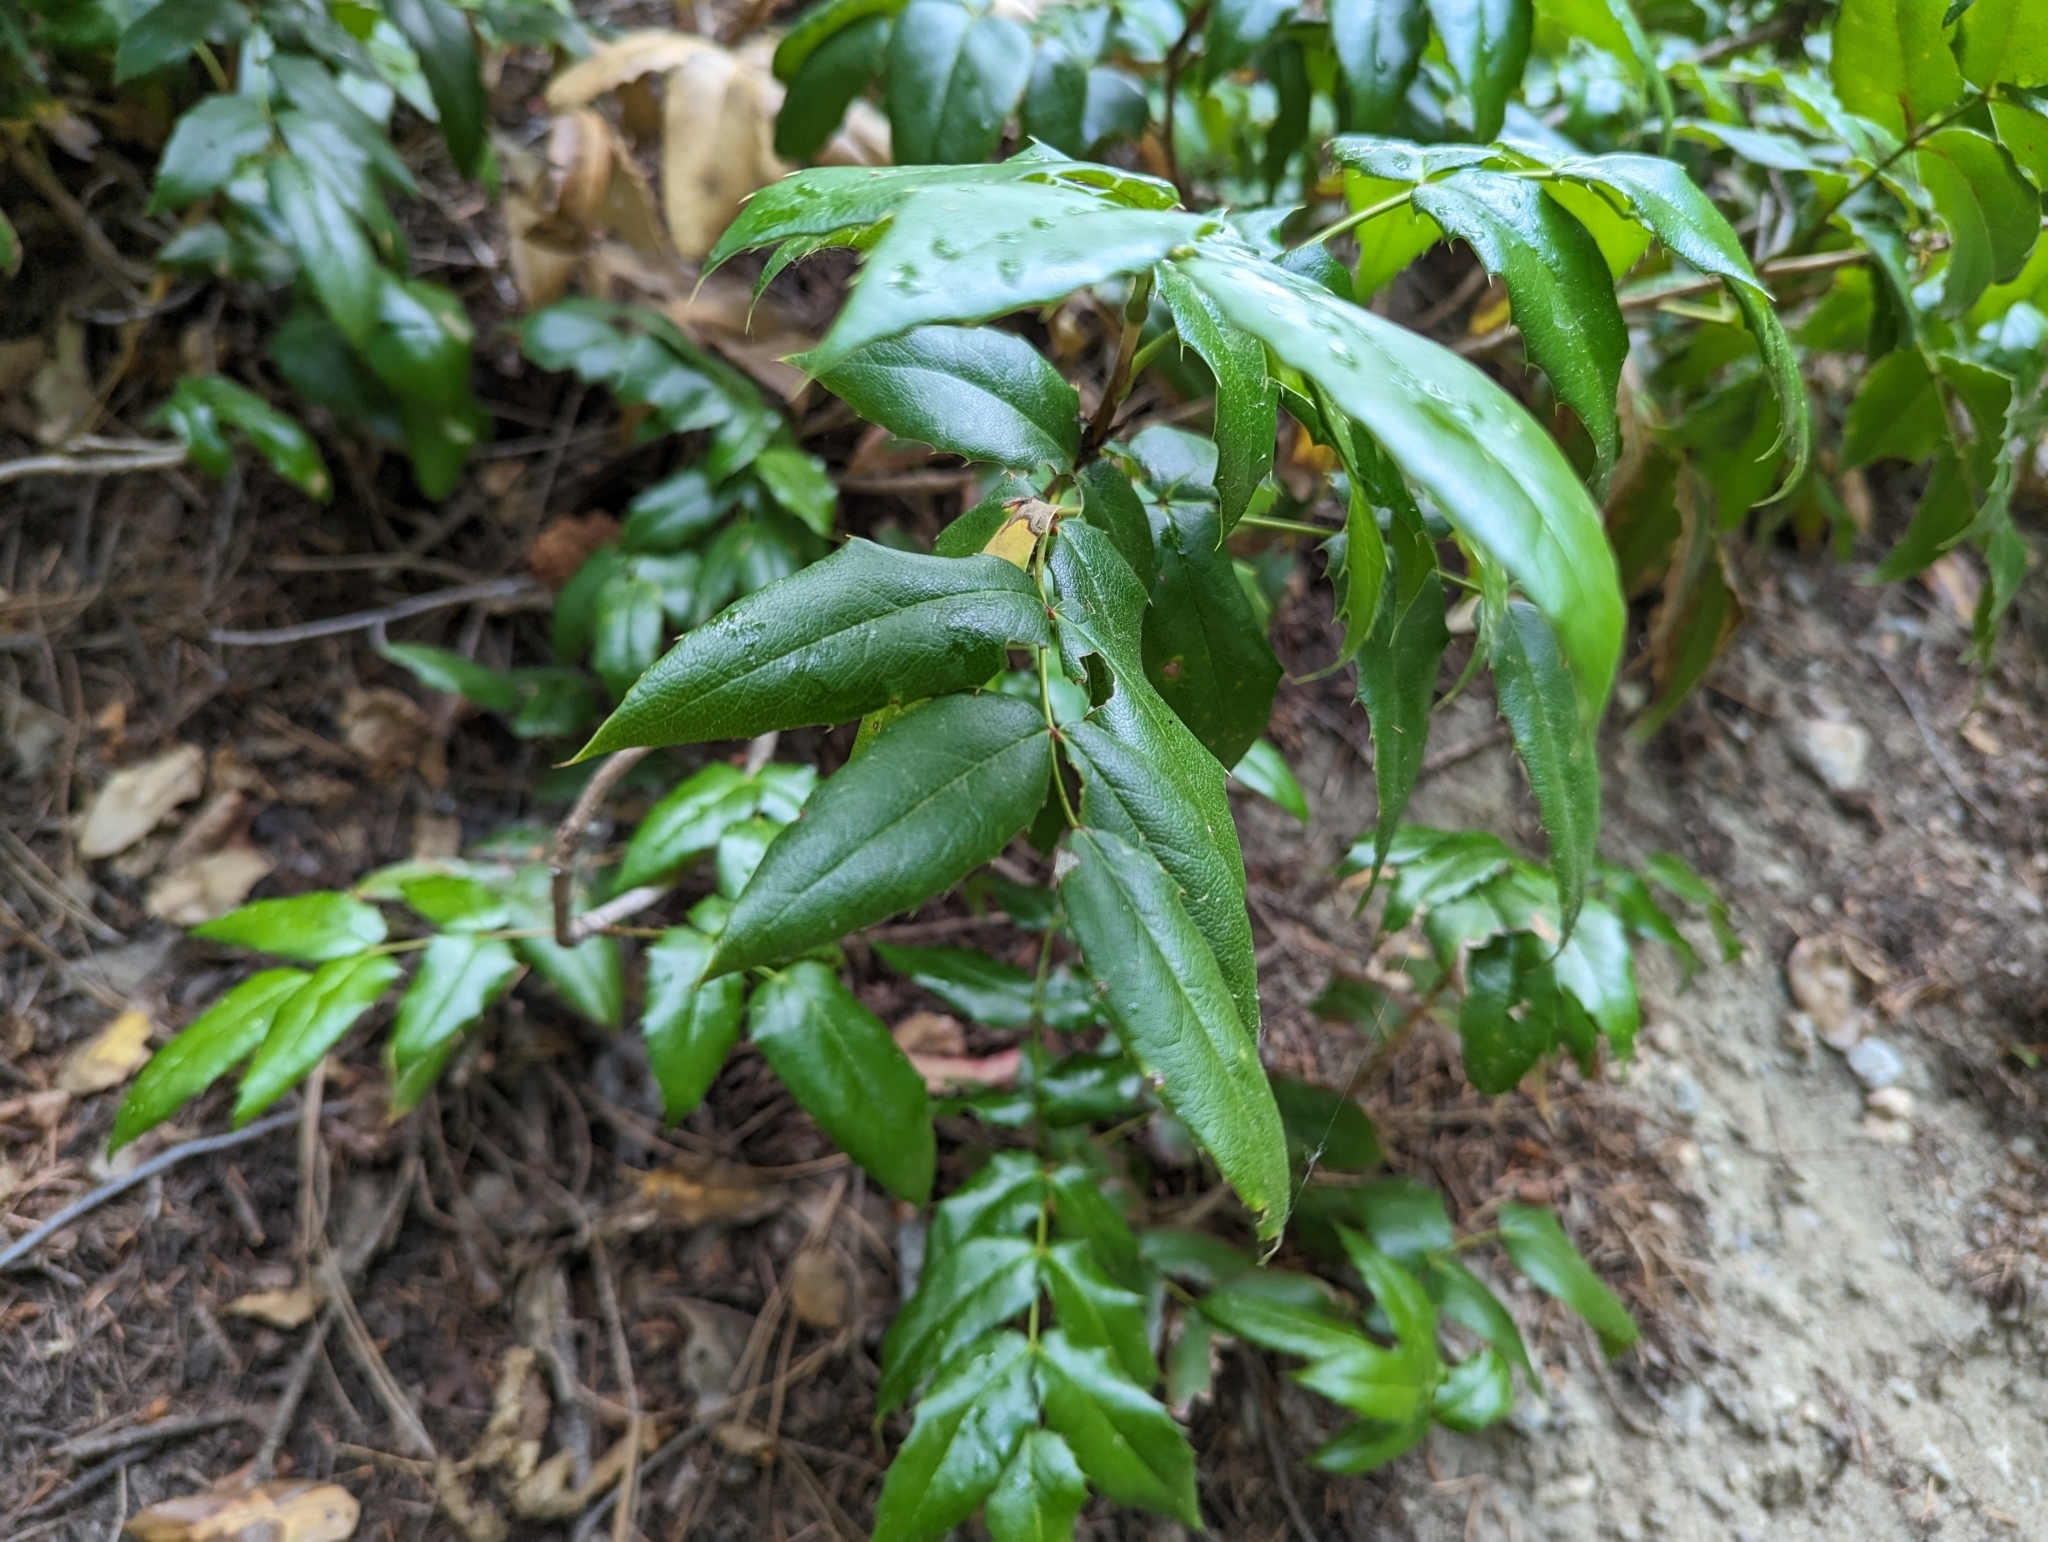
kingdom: Plantae
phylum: Tracheophyta
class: Magnoliopsida
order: Ranunculales
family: Berberidaceae
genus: Mahonia
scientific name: Mahonia aquifolium
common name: Oregon-grape
